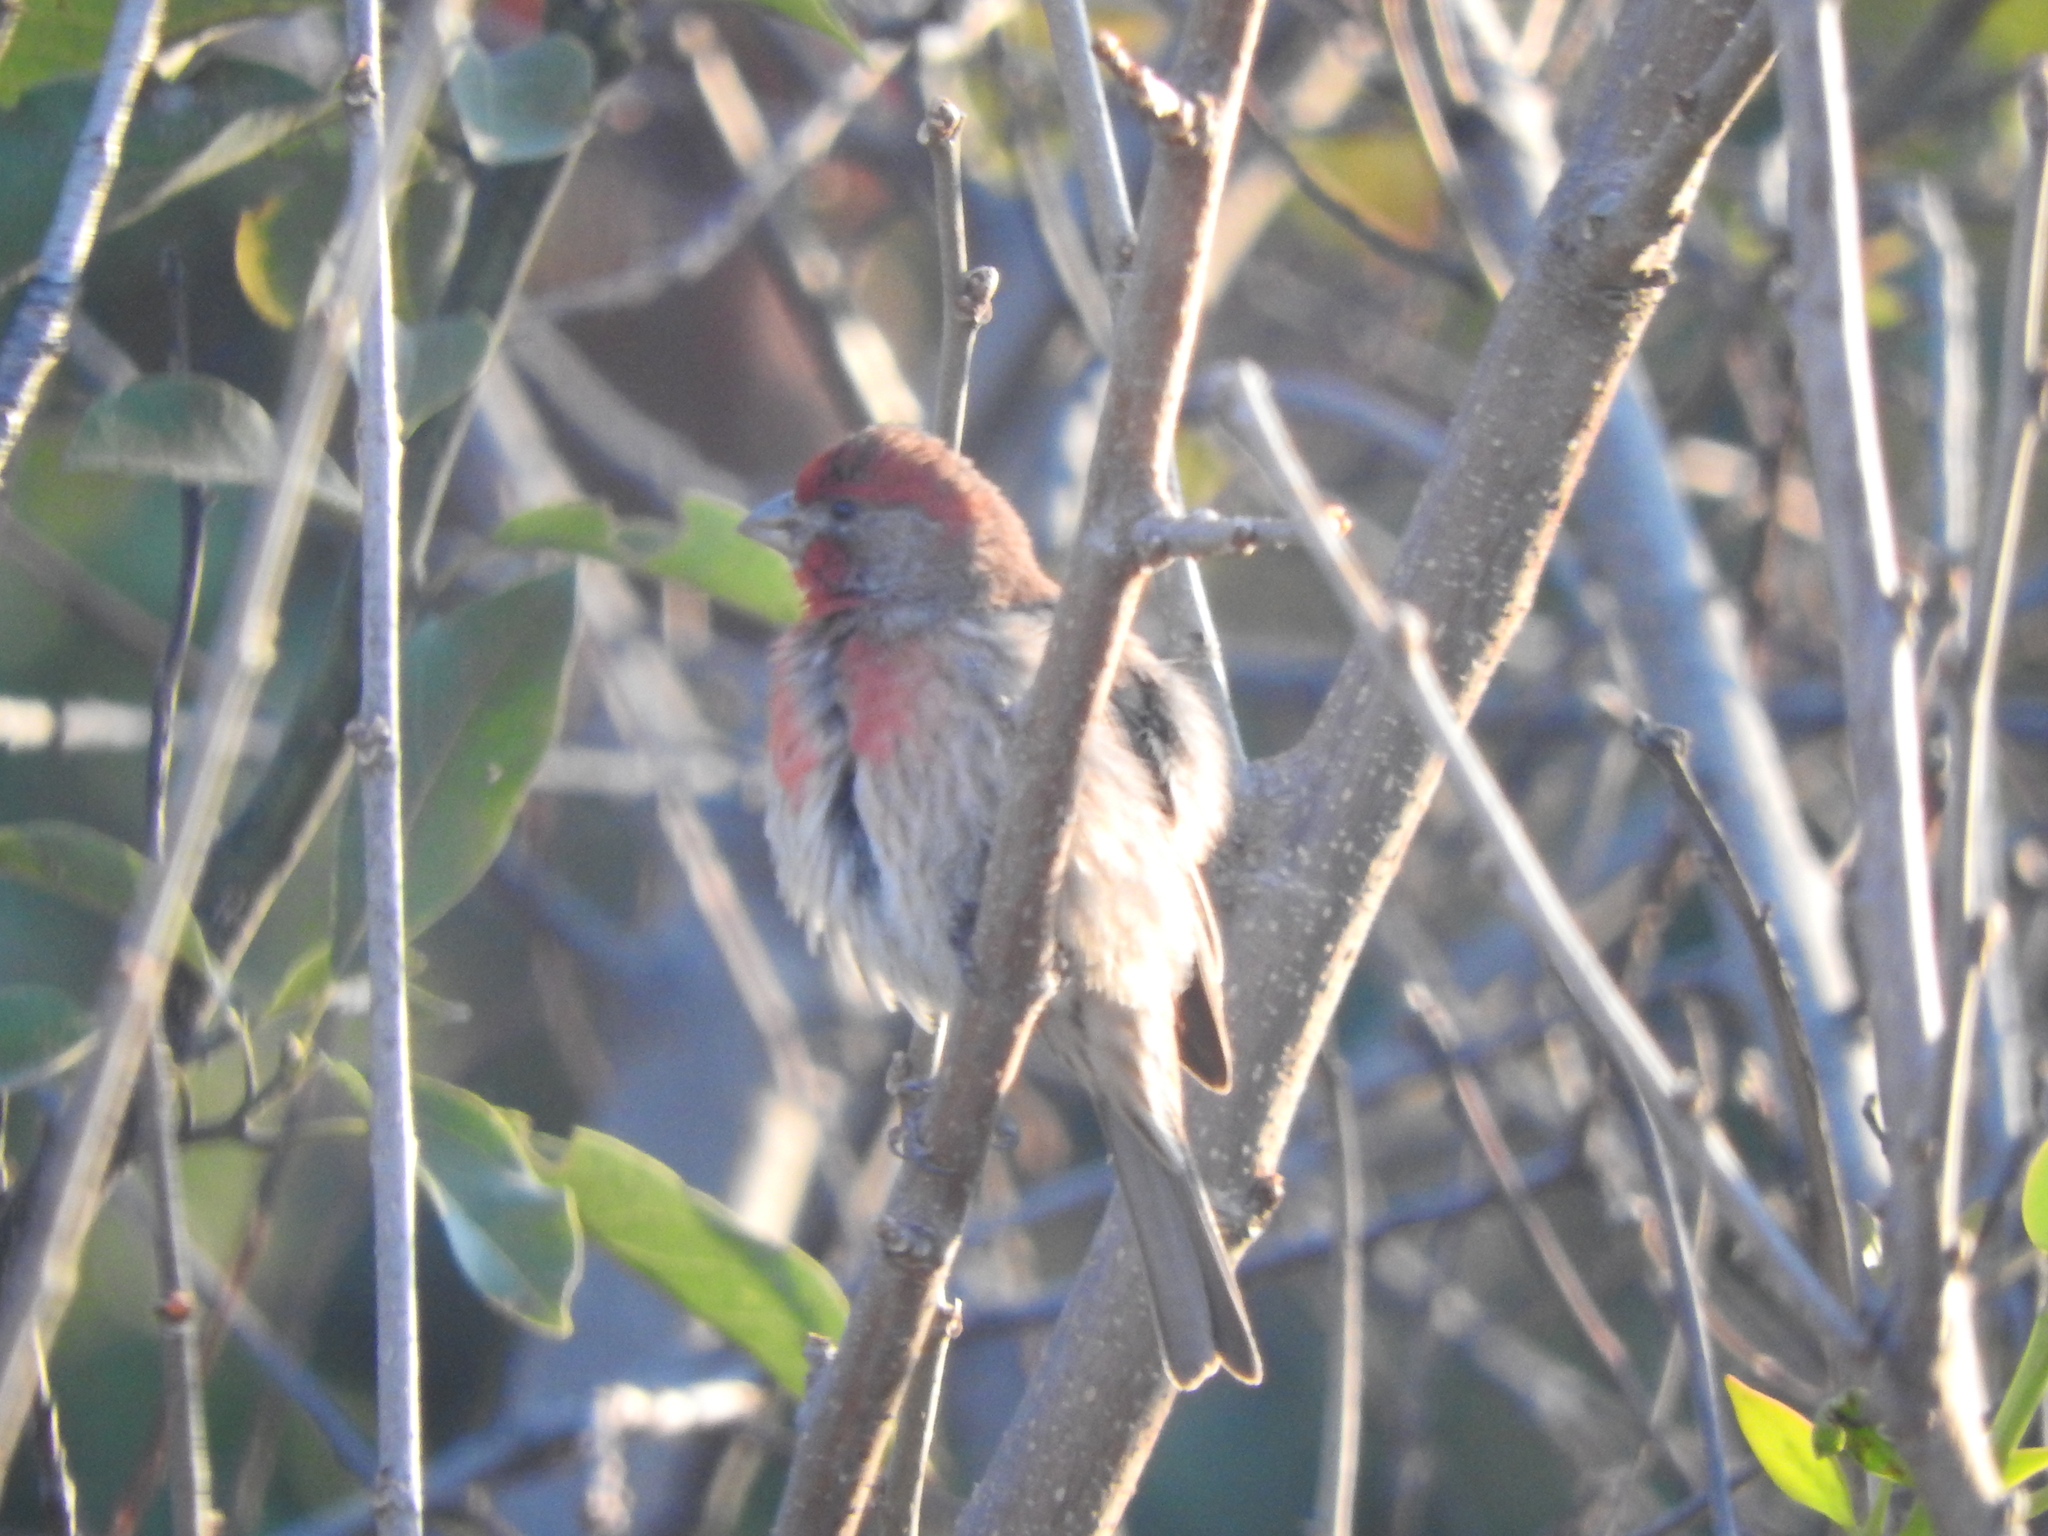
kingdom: Animalia
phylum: Chordata
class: Aves
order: Passeriformes
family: Fringillidae
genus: Haemorhous
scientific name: Haemorhous mexicanus
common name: House finch
